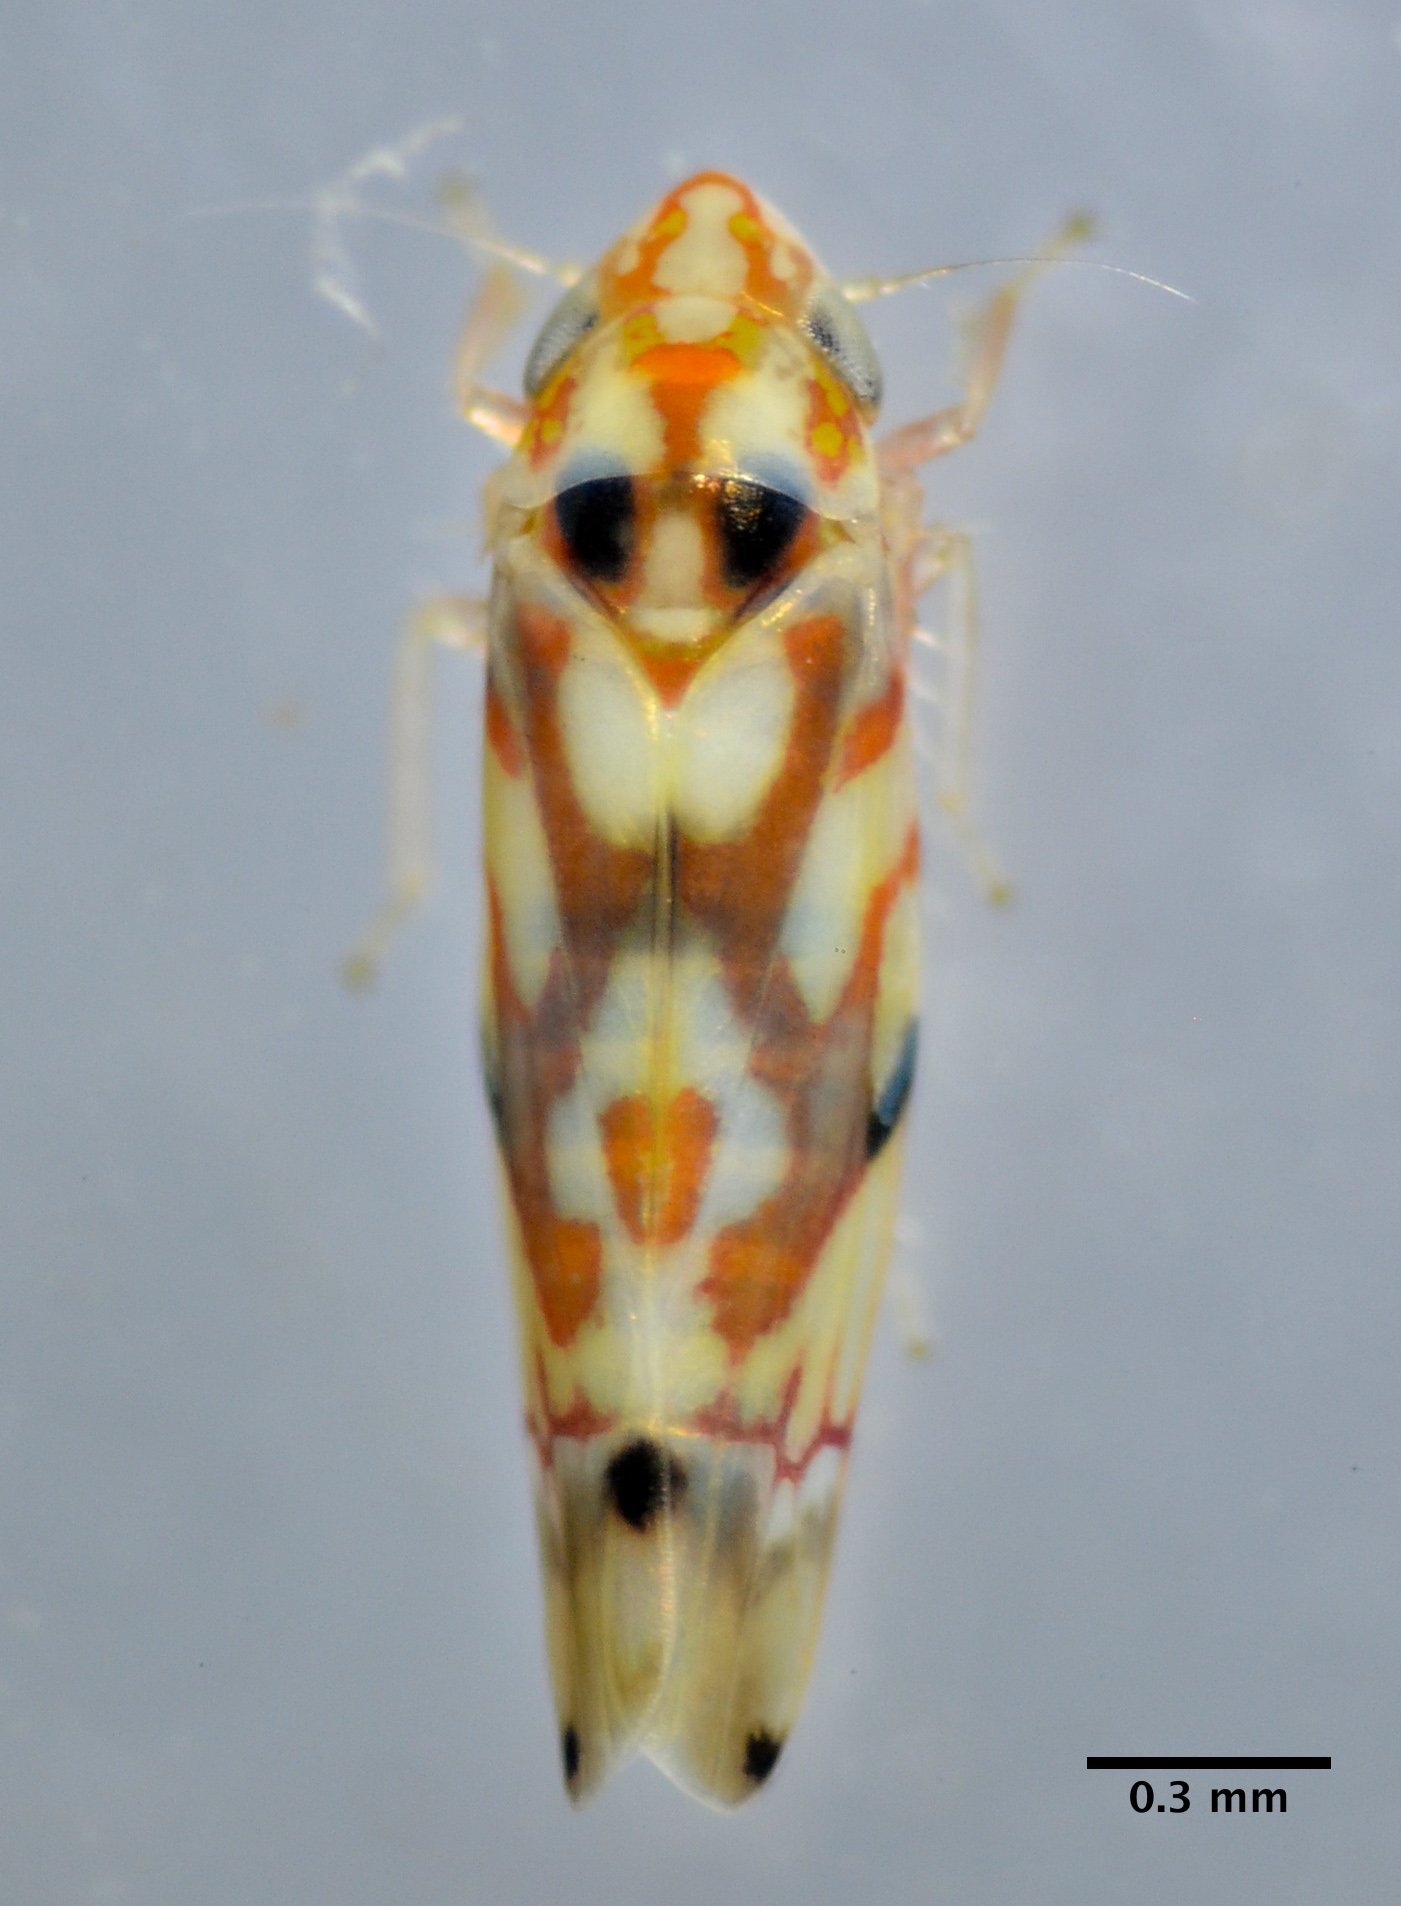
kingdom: Animalia
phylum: Arthropoda
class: Insecta
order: Hemiptera
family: Cicadellidae
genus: Erythroneura
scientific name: Erythroneura elegantula
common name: Western grape leafhopper
